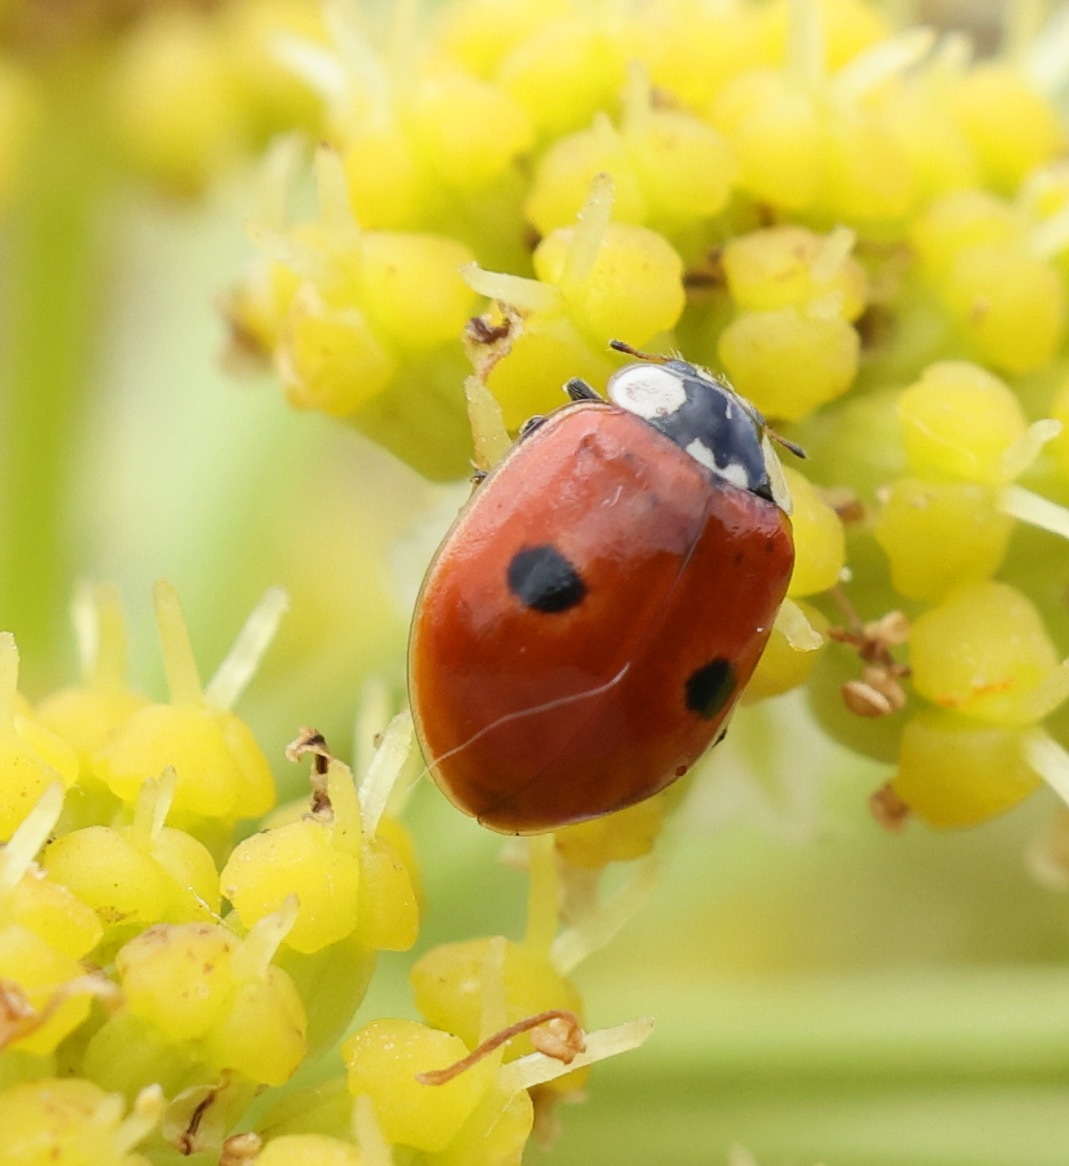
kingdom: Animalia
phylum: Arthropoda
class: Insecta
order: Coleoptera
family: Coccinellidae
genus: Adalia
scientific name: Adalia bipunctata
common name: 2-spot ladybird
